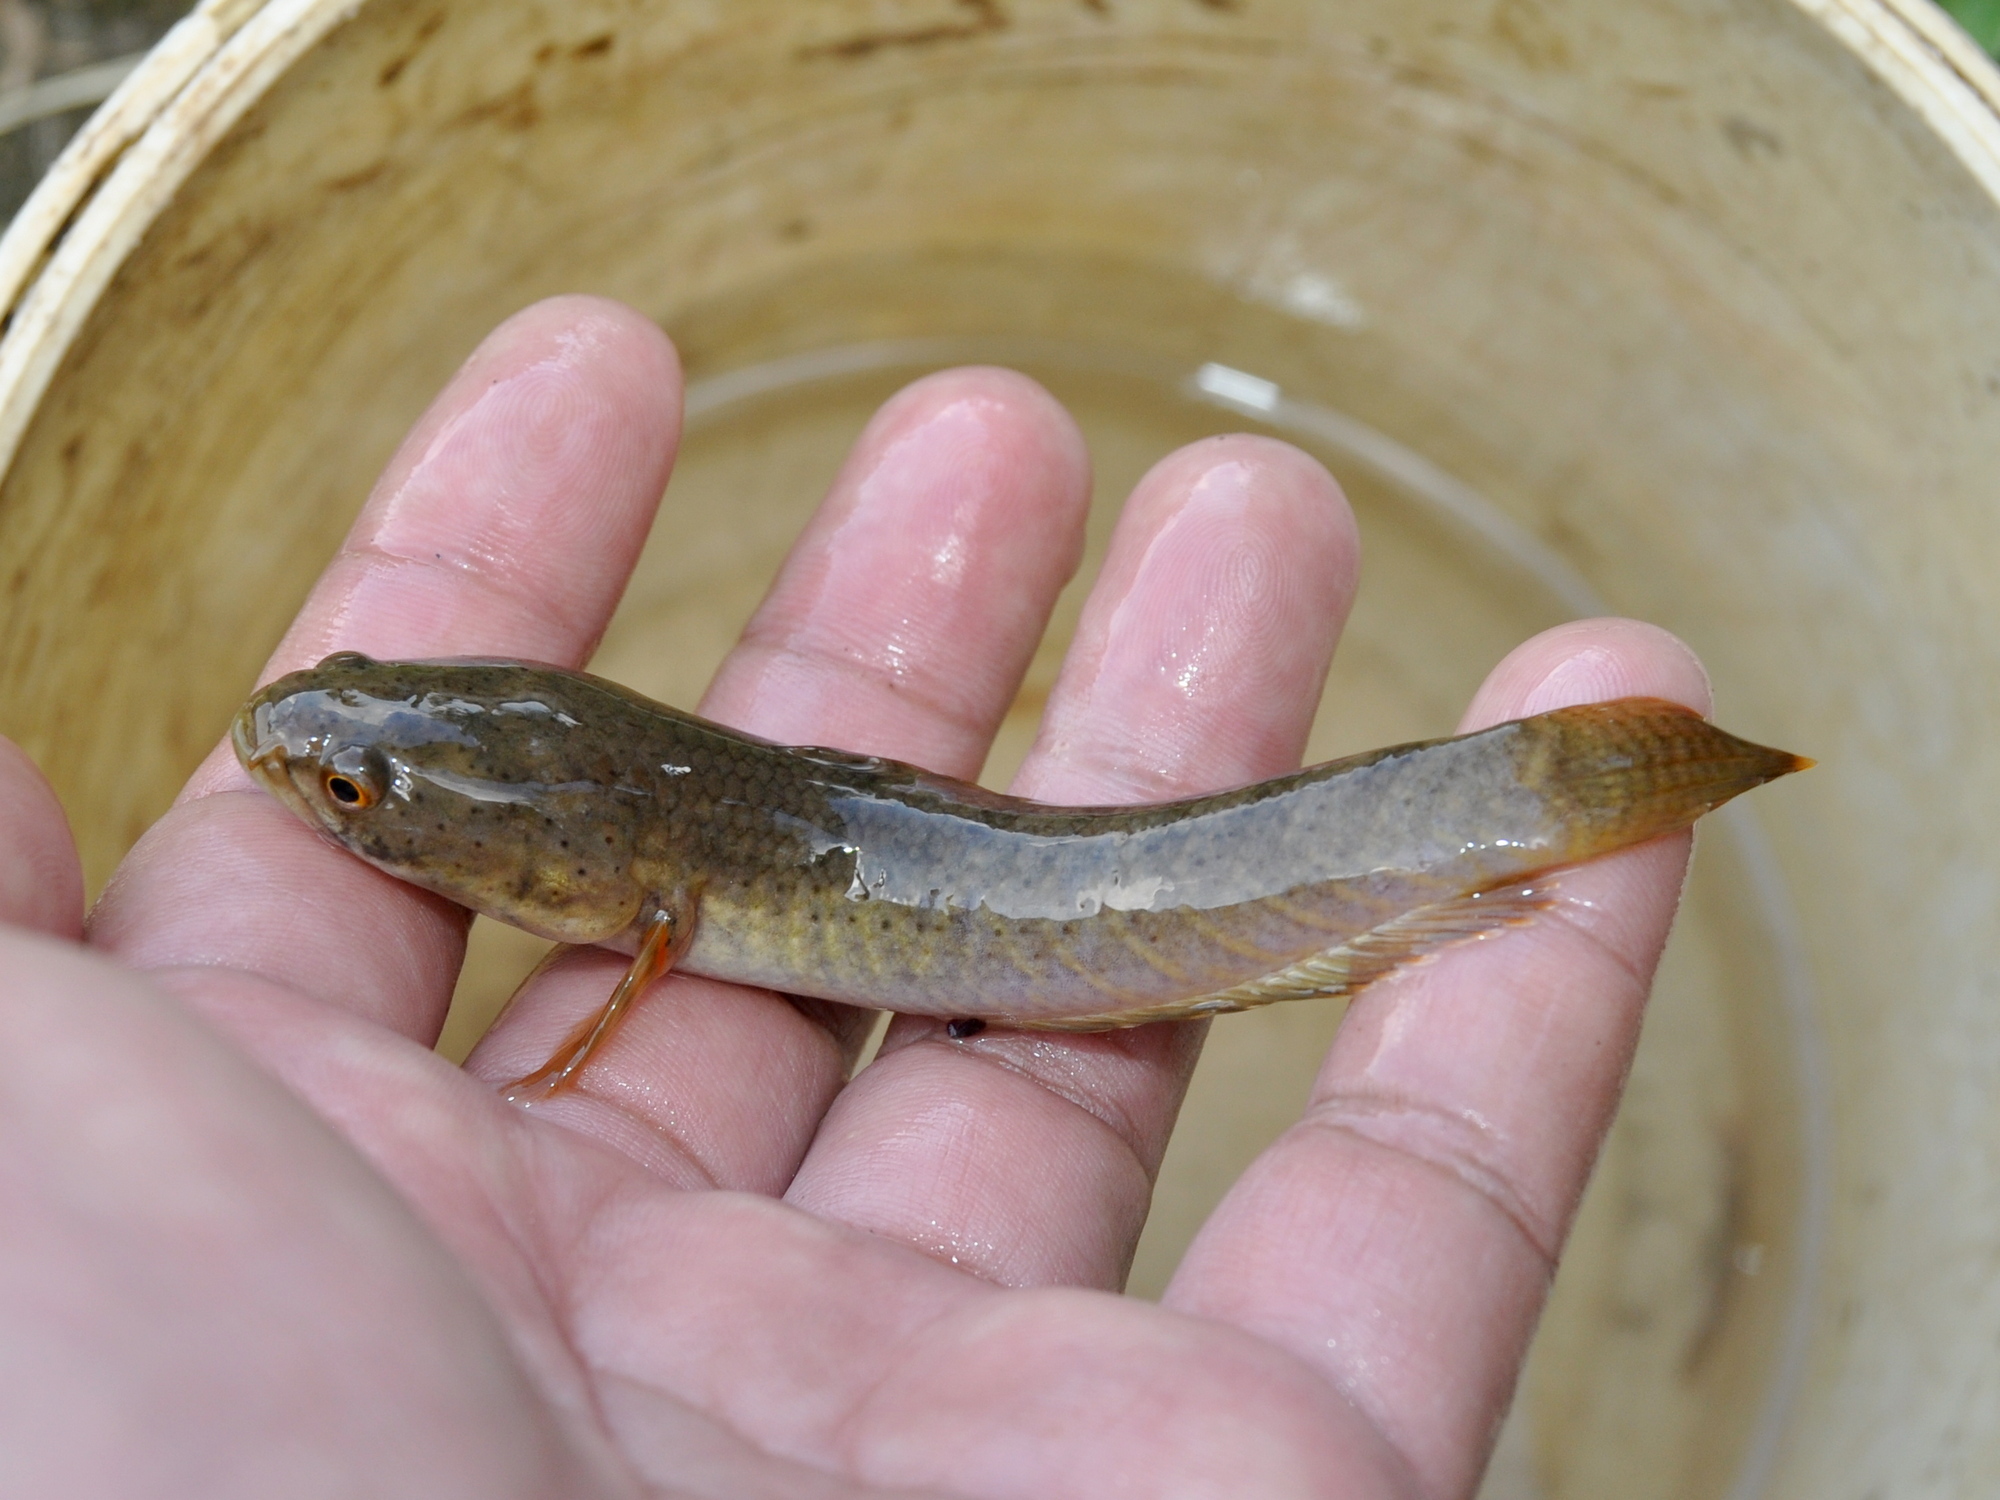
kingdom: Animalia
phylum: Chordata
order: Perciformes
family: Channidae
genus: Channa
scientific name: Channa gachua
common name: Dwarf snakehead
